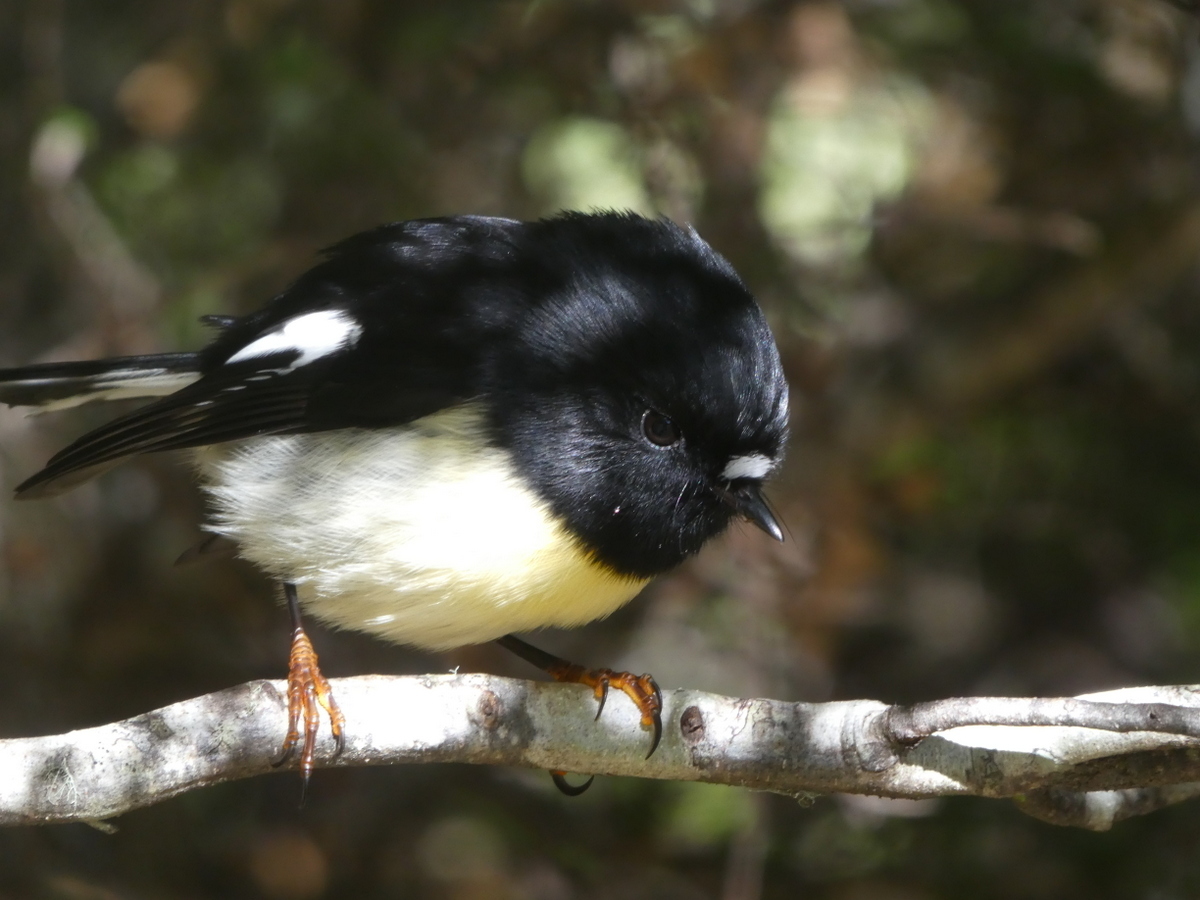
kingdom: Animalia
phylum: Chordata
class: Aves
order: Passeriformes
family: Petroicidae
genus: Petroica
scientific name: Petroica macrocephala
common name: Tomtit
